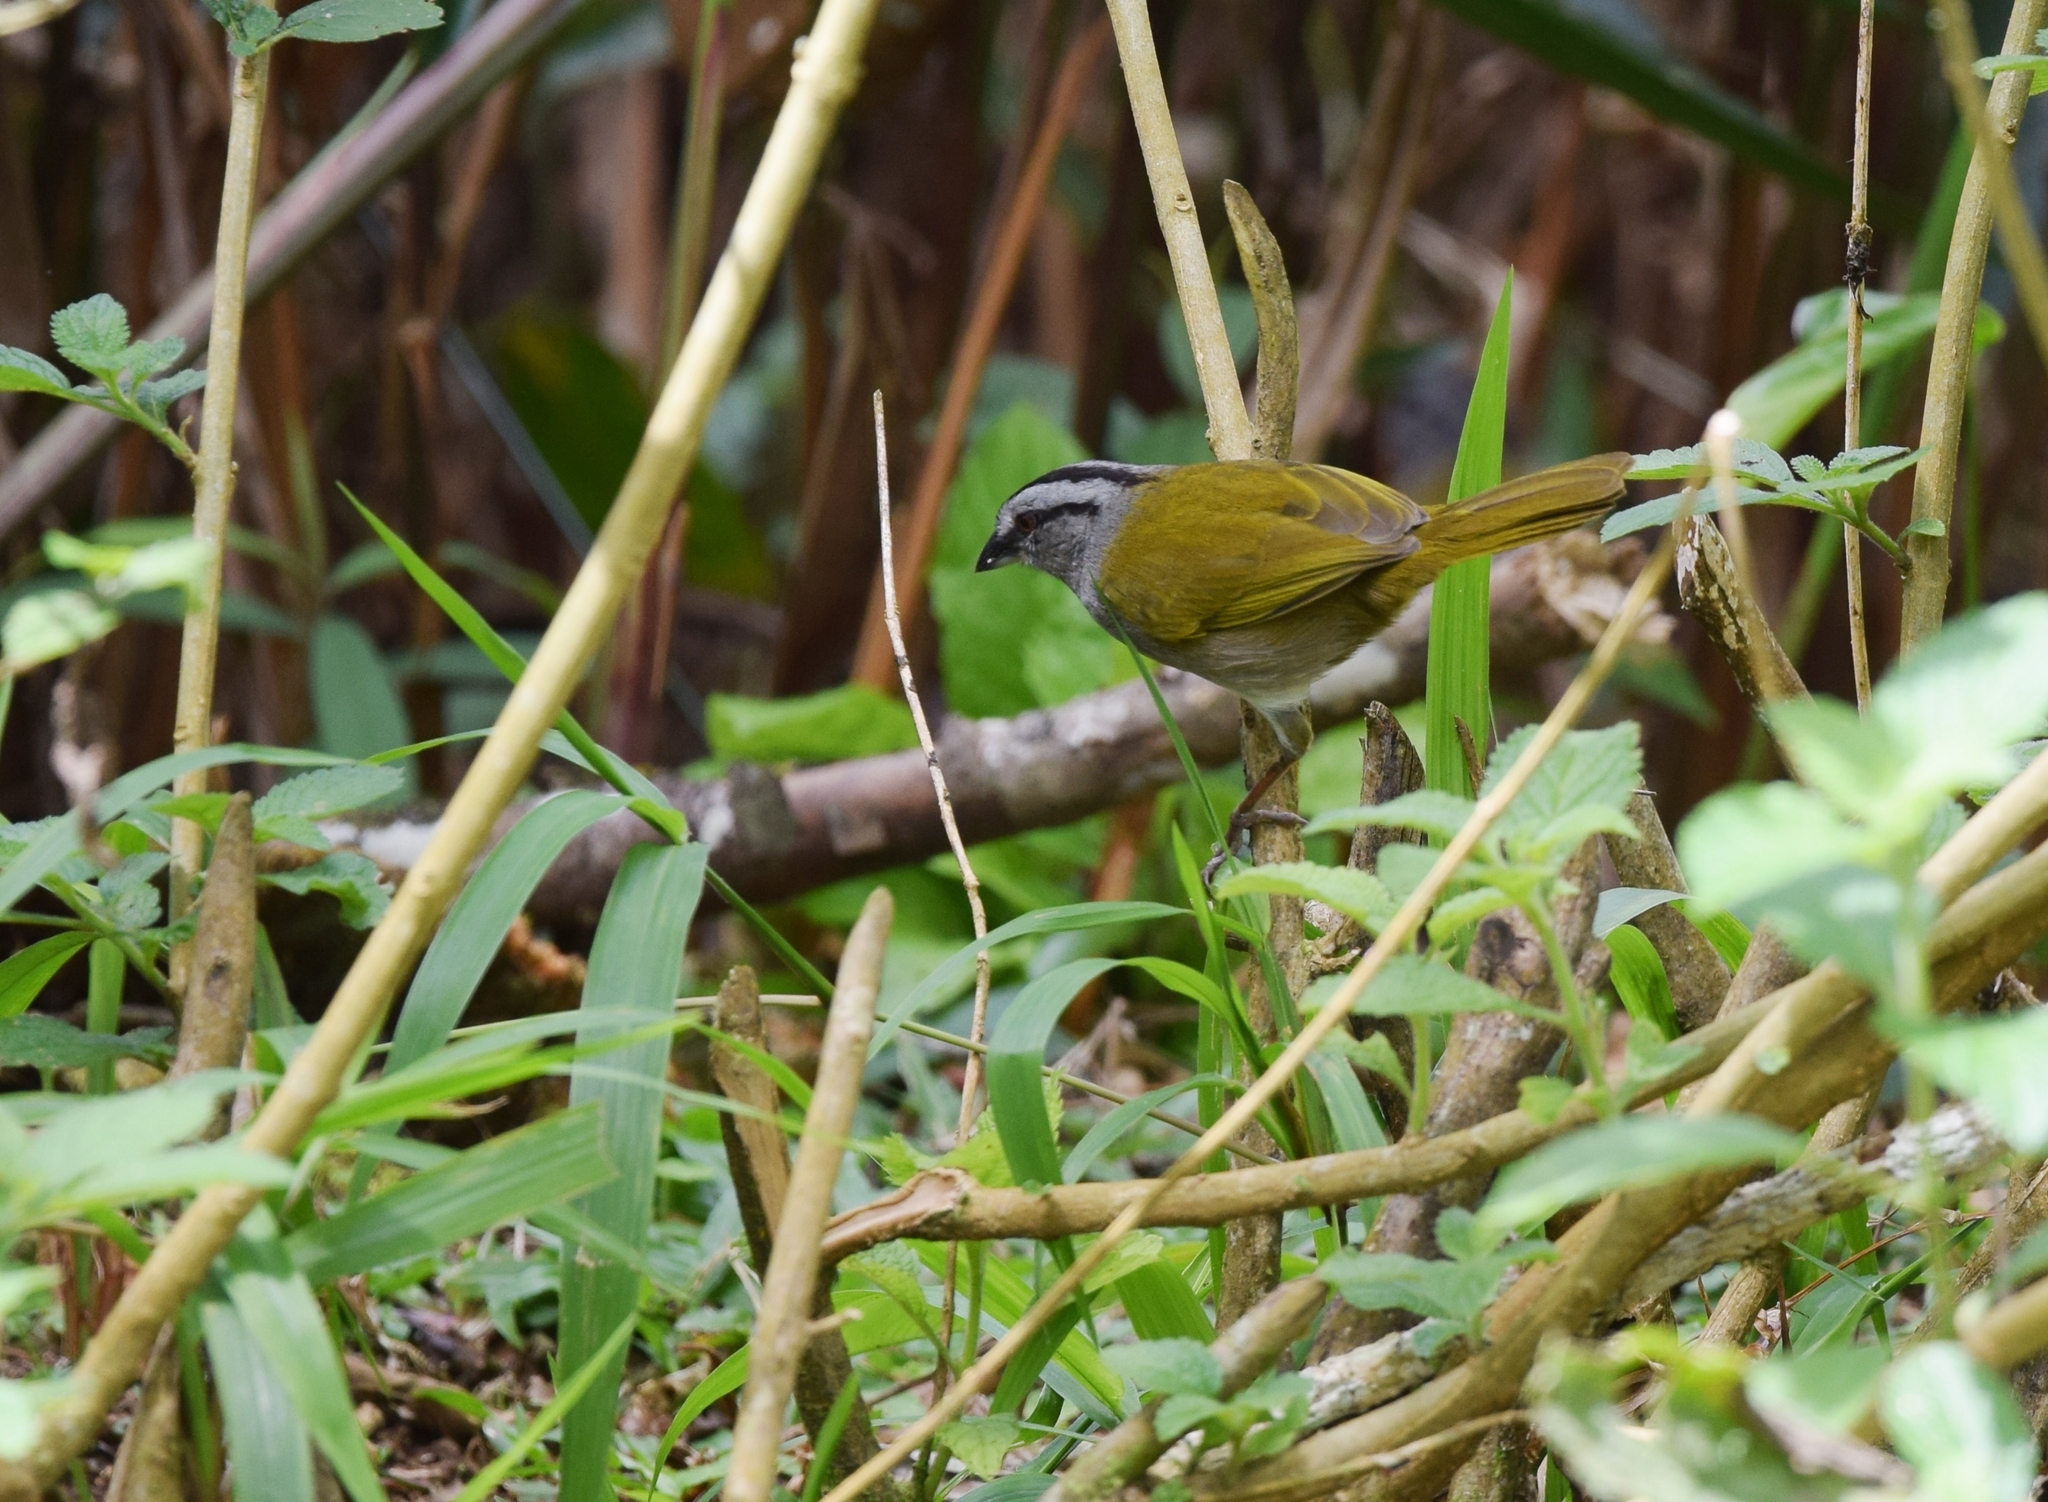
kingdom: Animalia
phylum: Chordata
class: Aves
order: Passeriformes
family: Passerellidae
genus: Arremonops
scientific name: Arremonops conirostris
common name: Black-striped sparrow
